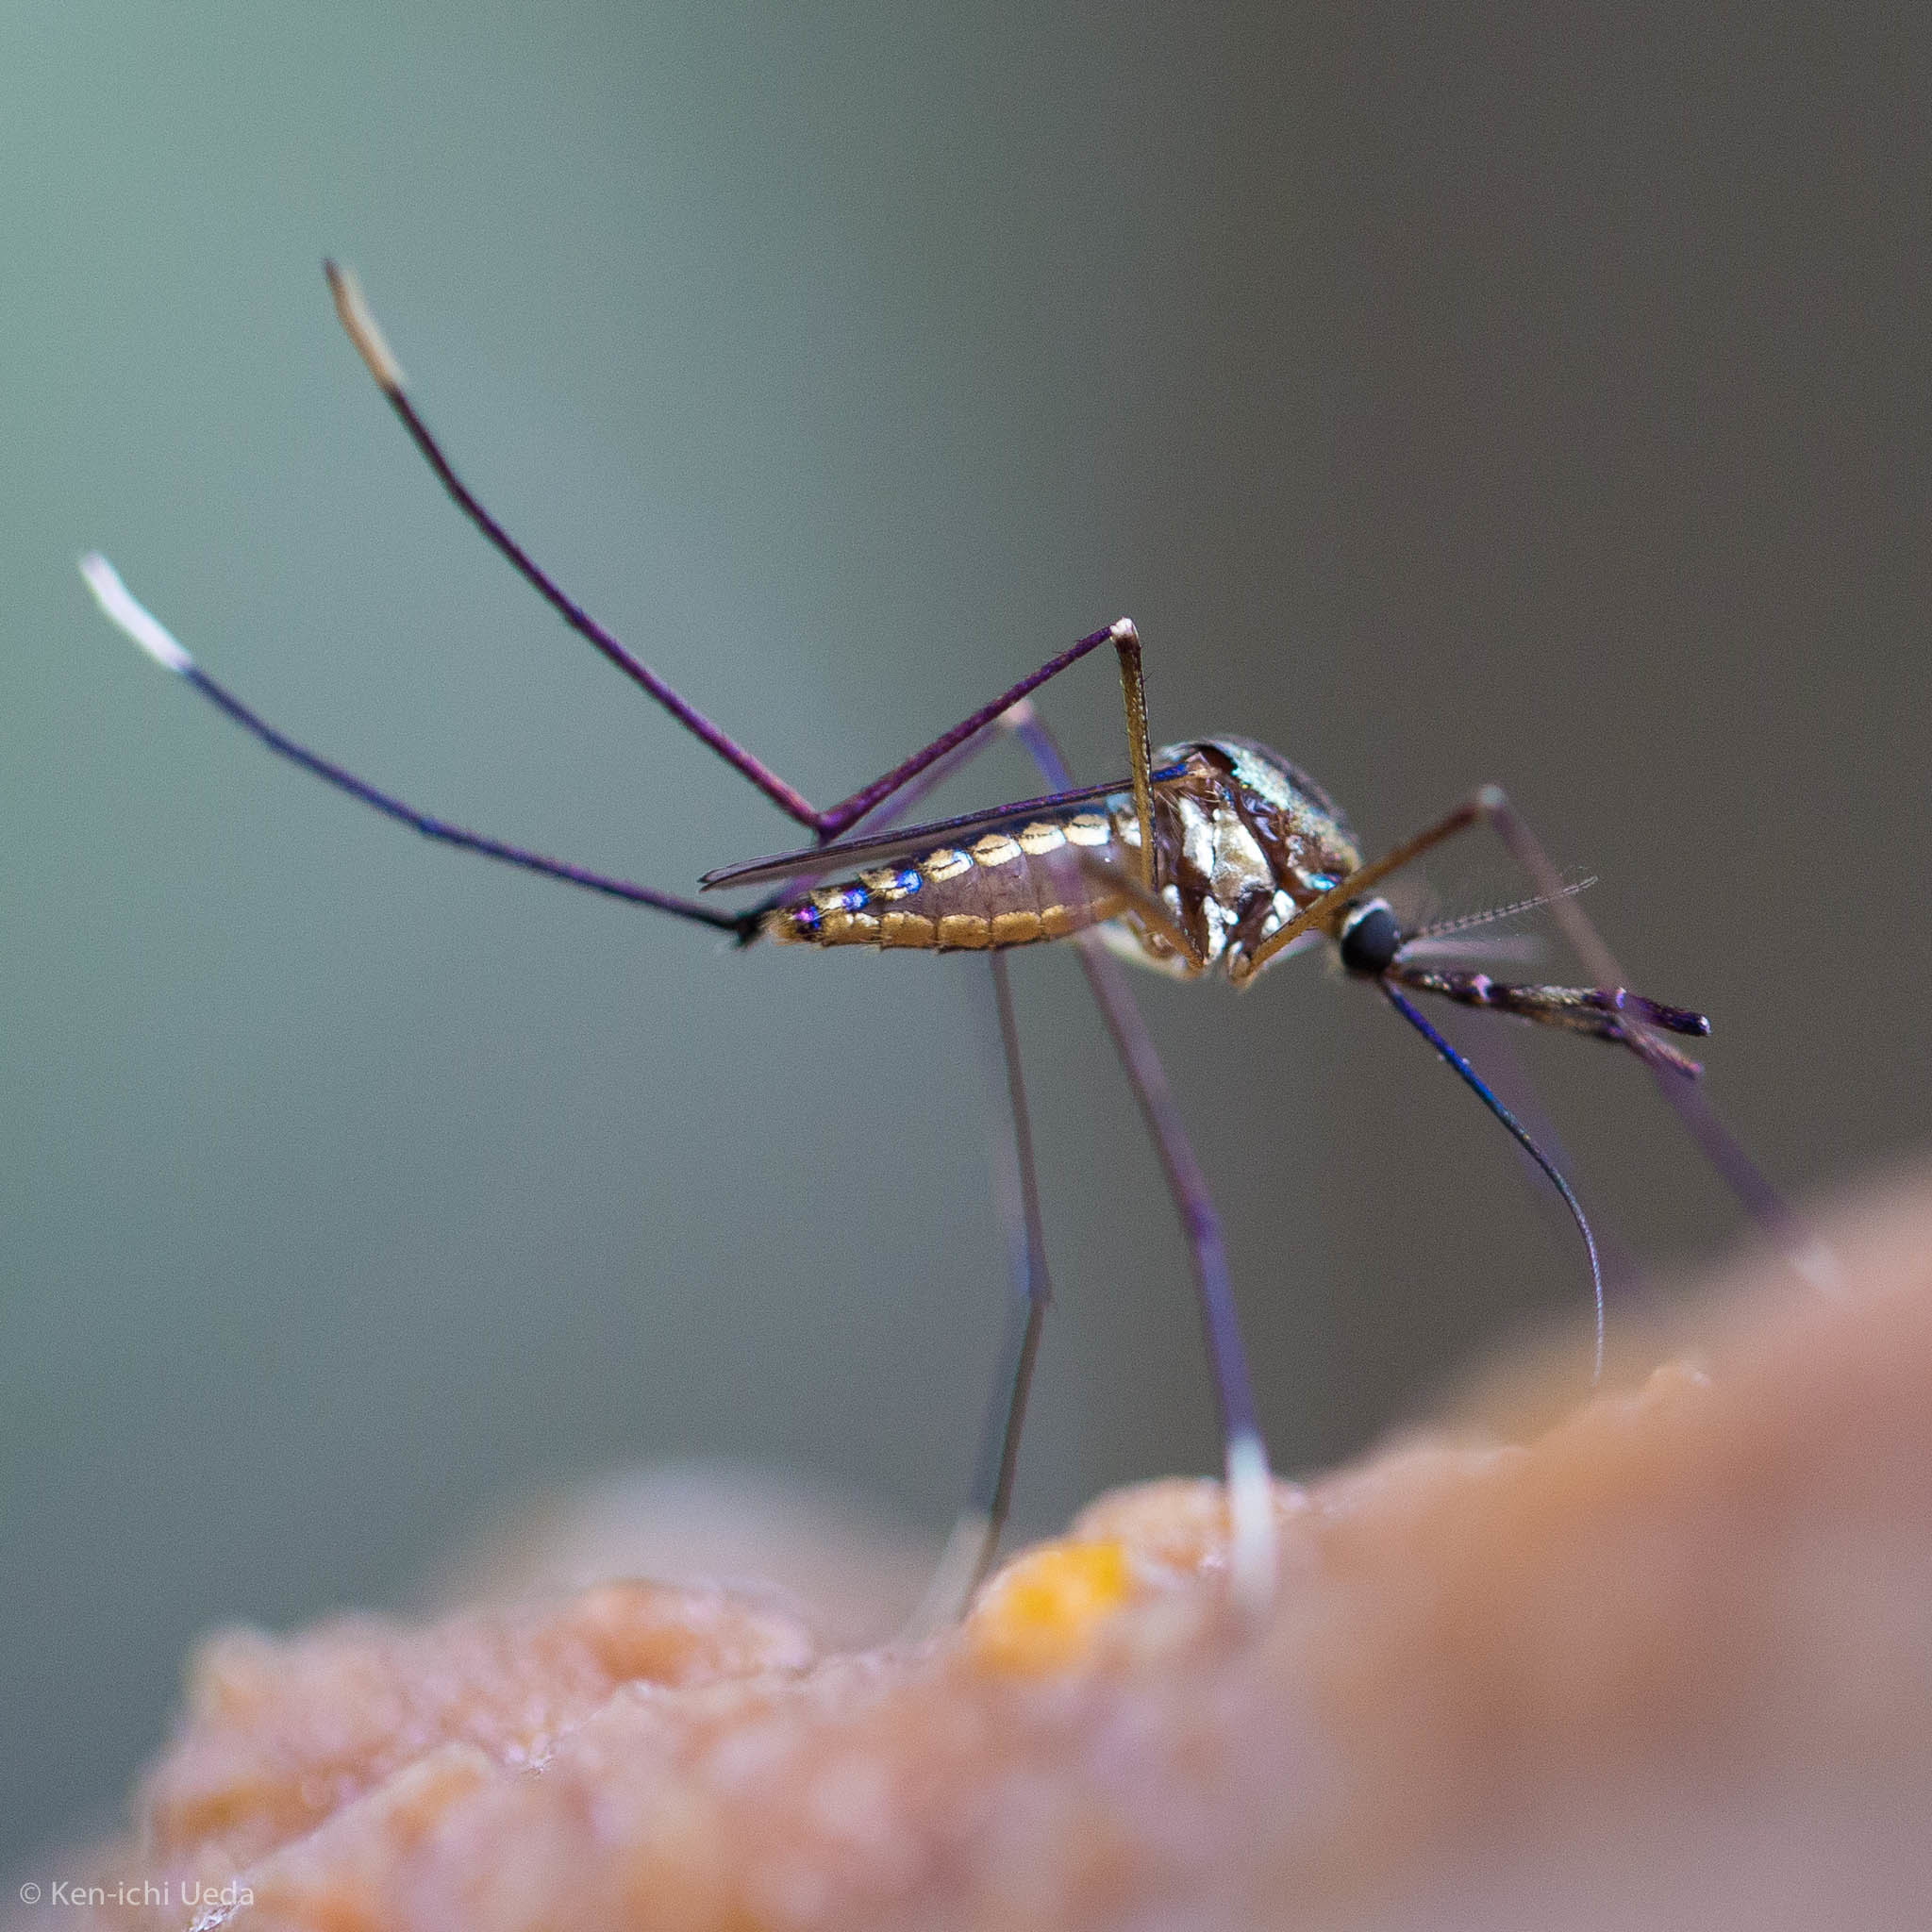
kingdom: Animalia
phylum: Arthropoda
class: Insecta
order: Diptera
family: Culicidae
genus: Toxorhynchites
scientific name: Toxorhynchites rutilus
